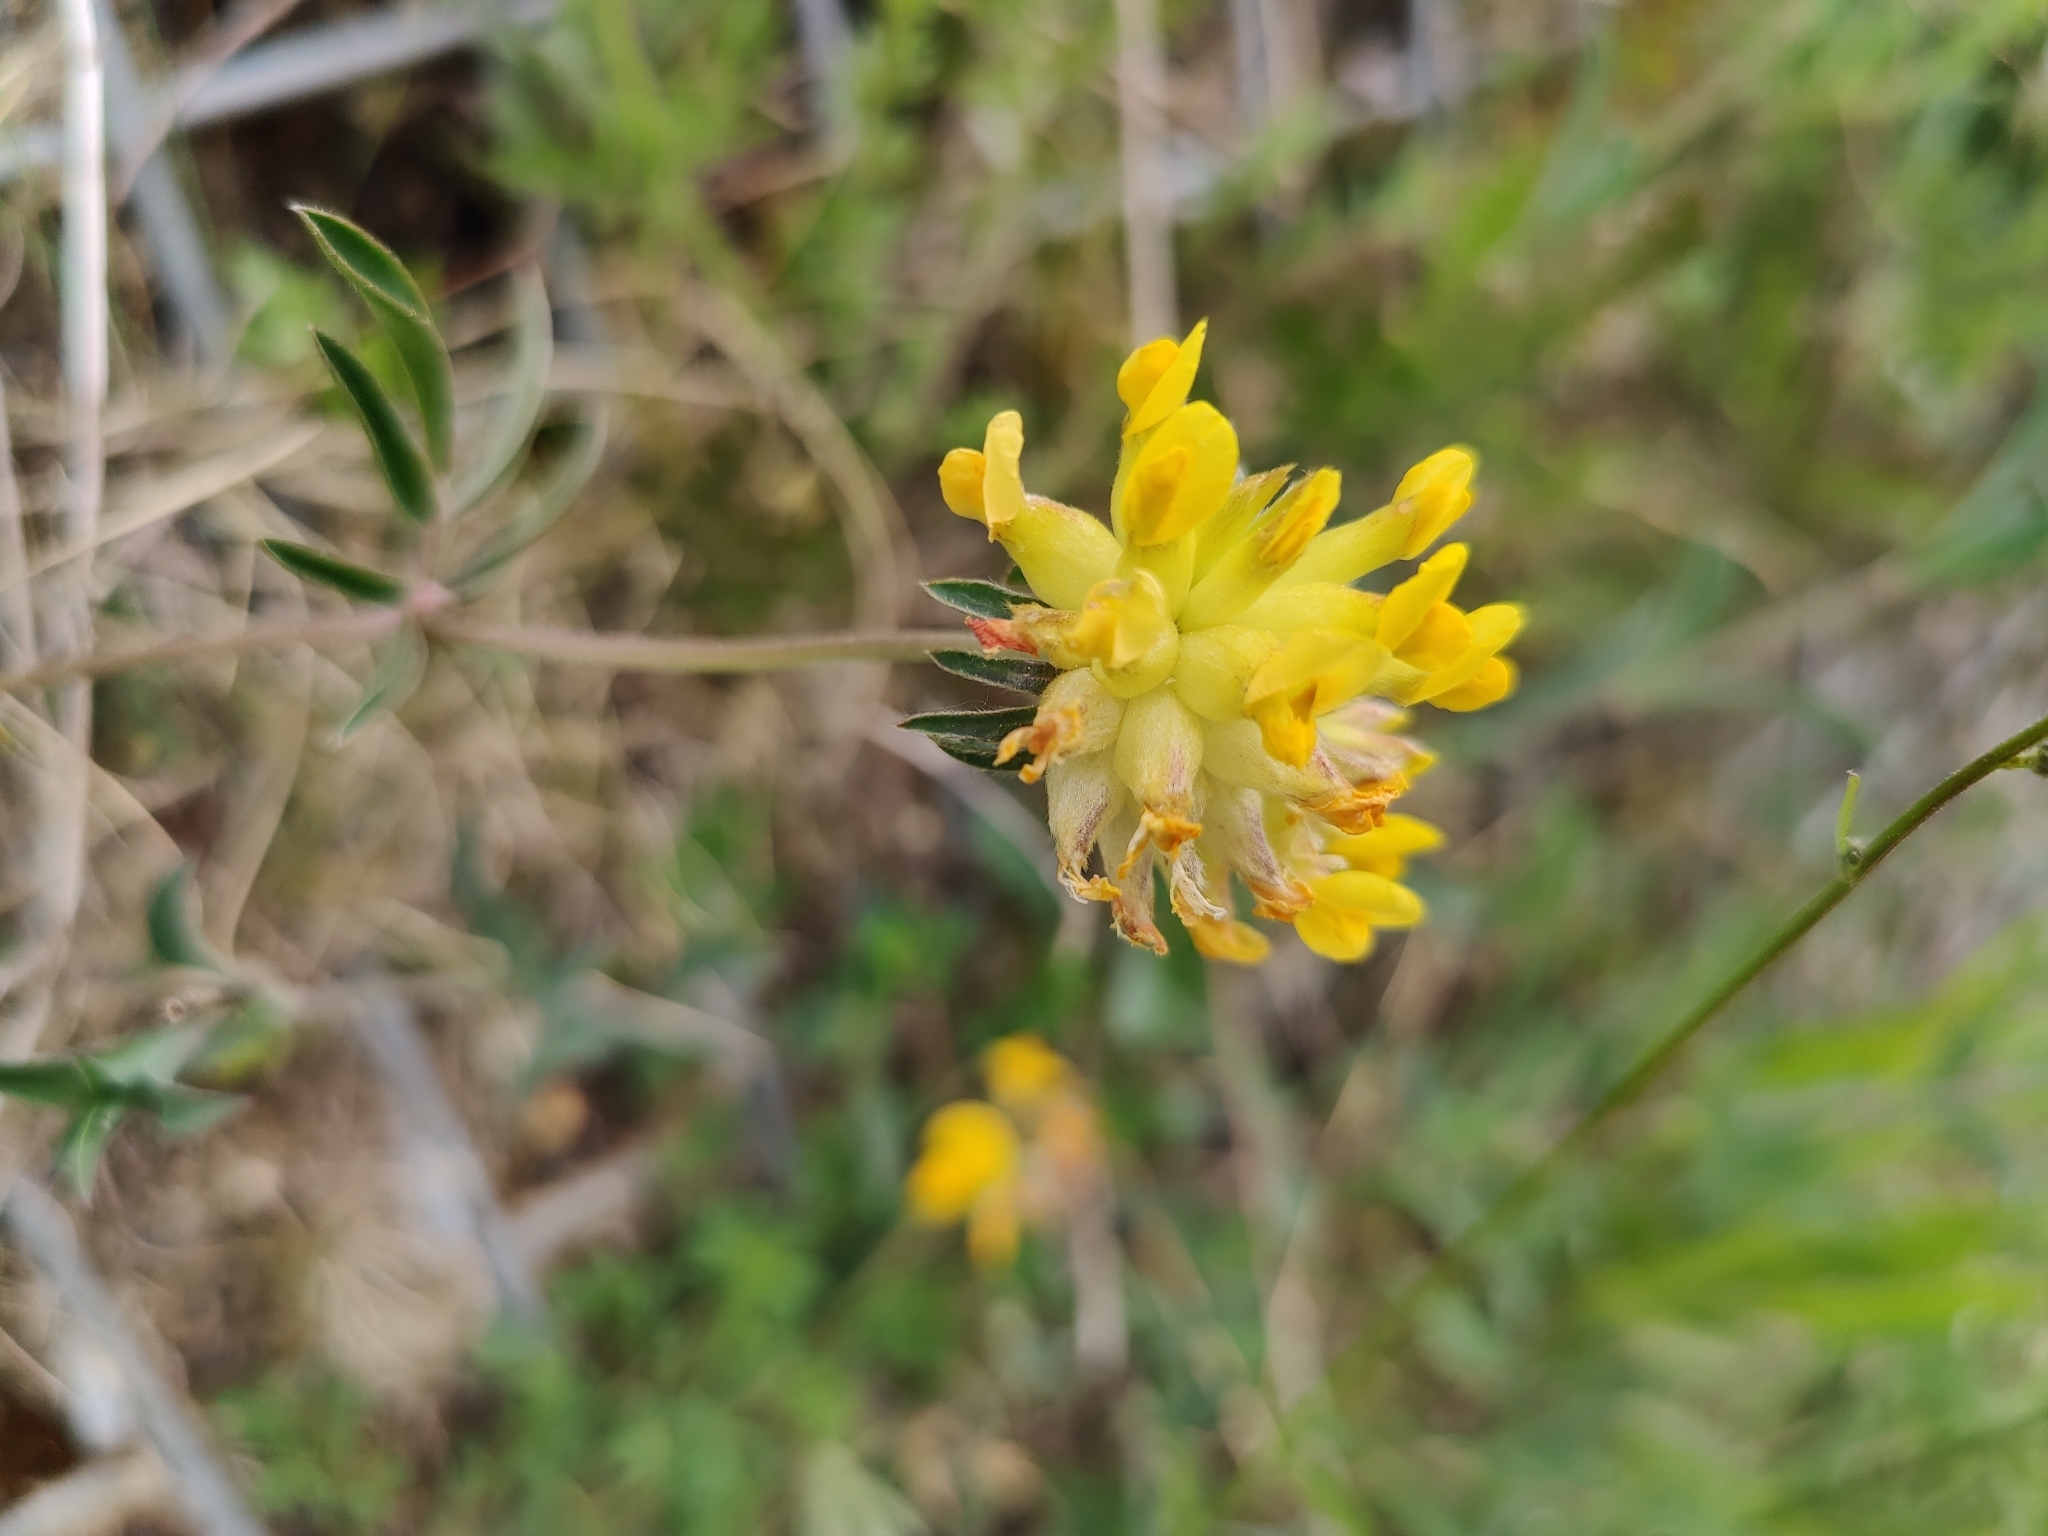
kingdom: Plantae
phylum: Tracheophyta
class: Magnoliopsida
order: Fabales
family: Fabaceae
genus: Anthyllis
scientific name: Anthyllis vulneraria
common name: Kidney vetch
